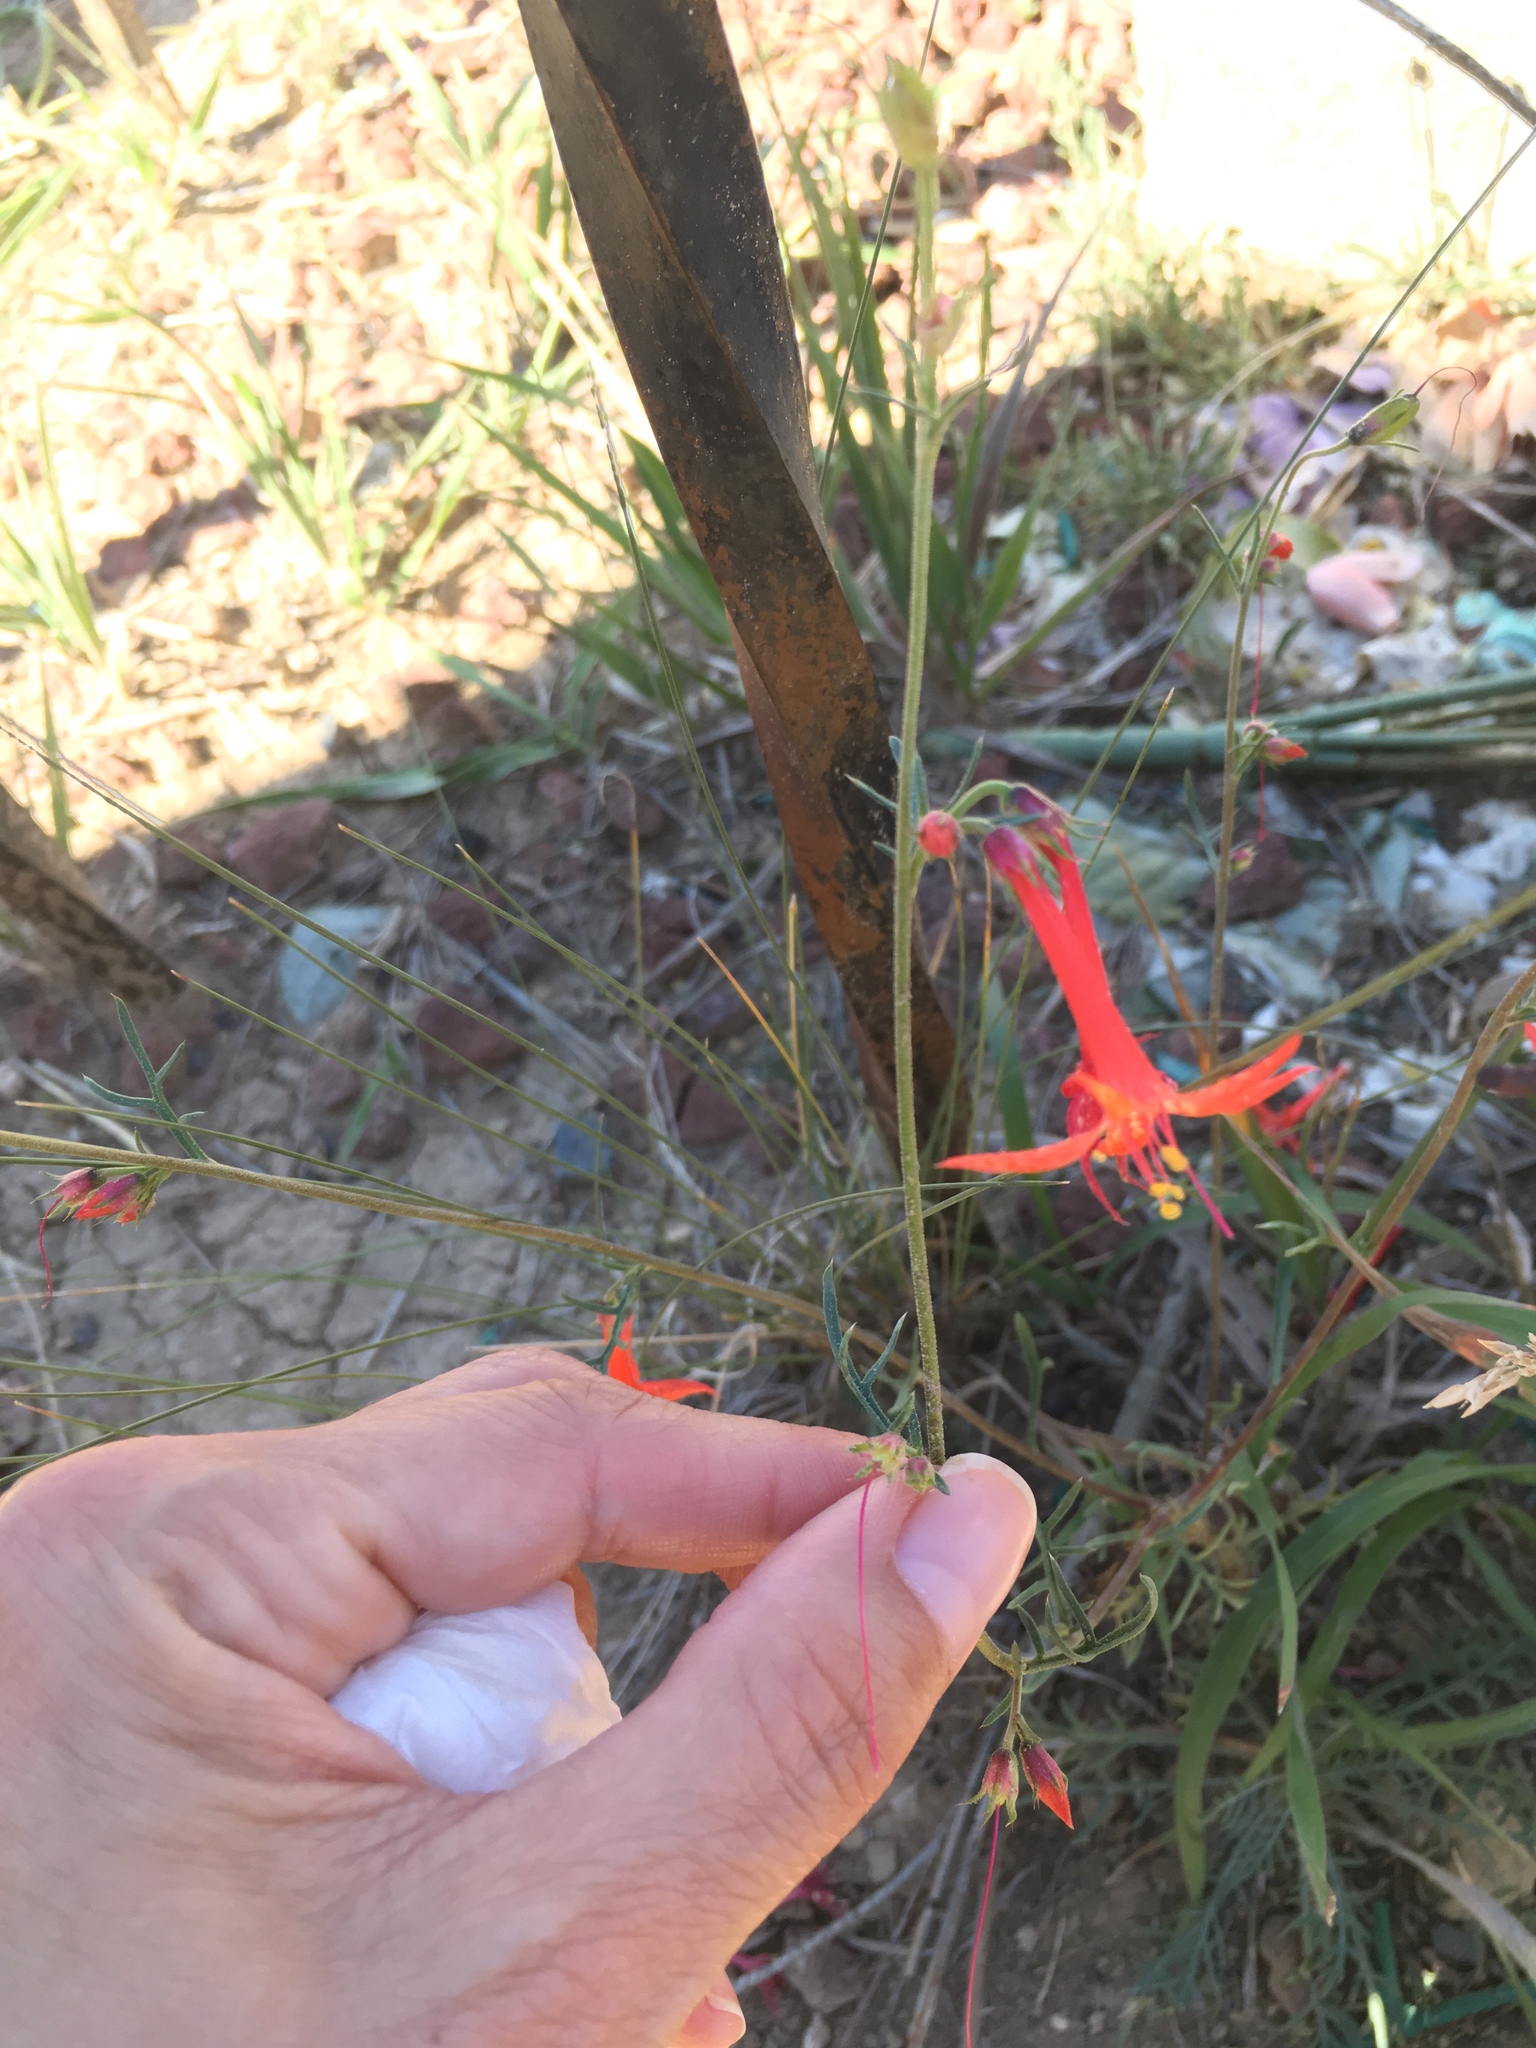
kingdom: Plantae
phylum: Tracheophyta
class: Magnoliopsida
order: Ericales
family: Polemoniaceae
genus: Ipomopsis
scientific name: Ipomopsis aggregata
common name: Scarlet gilia
